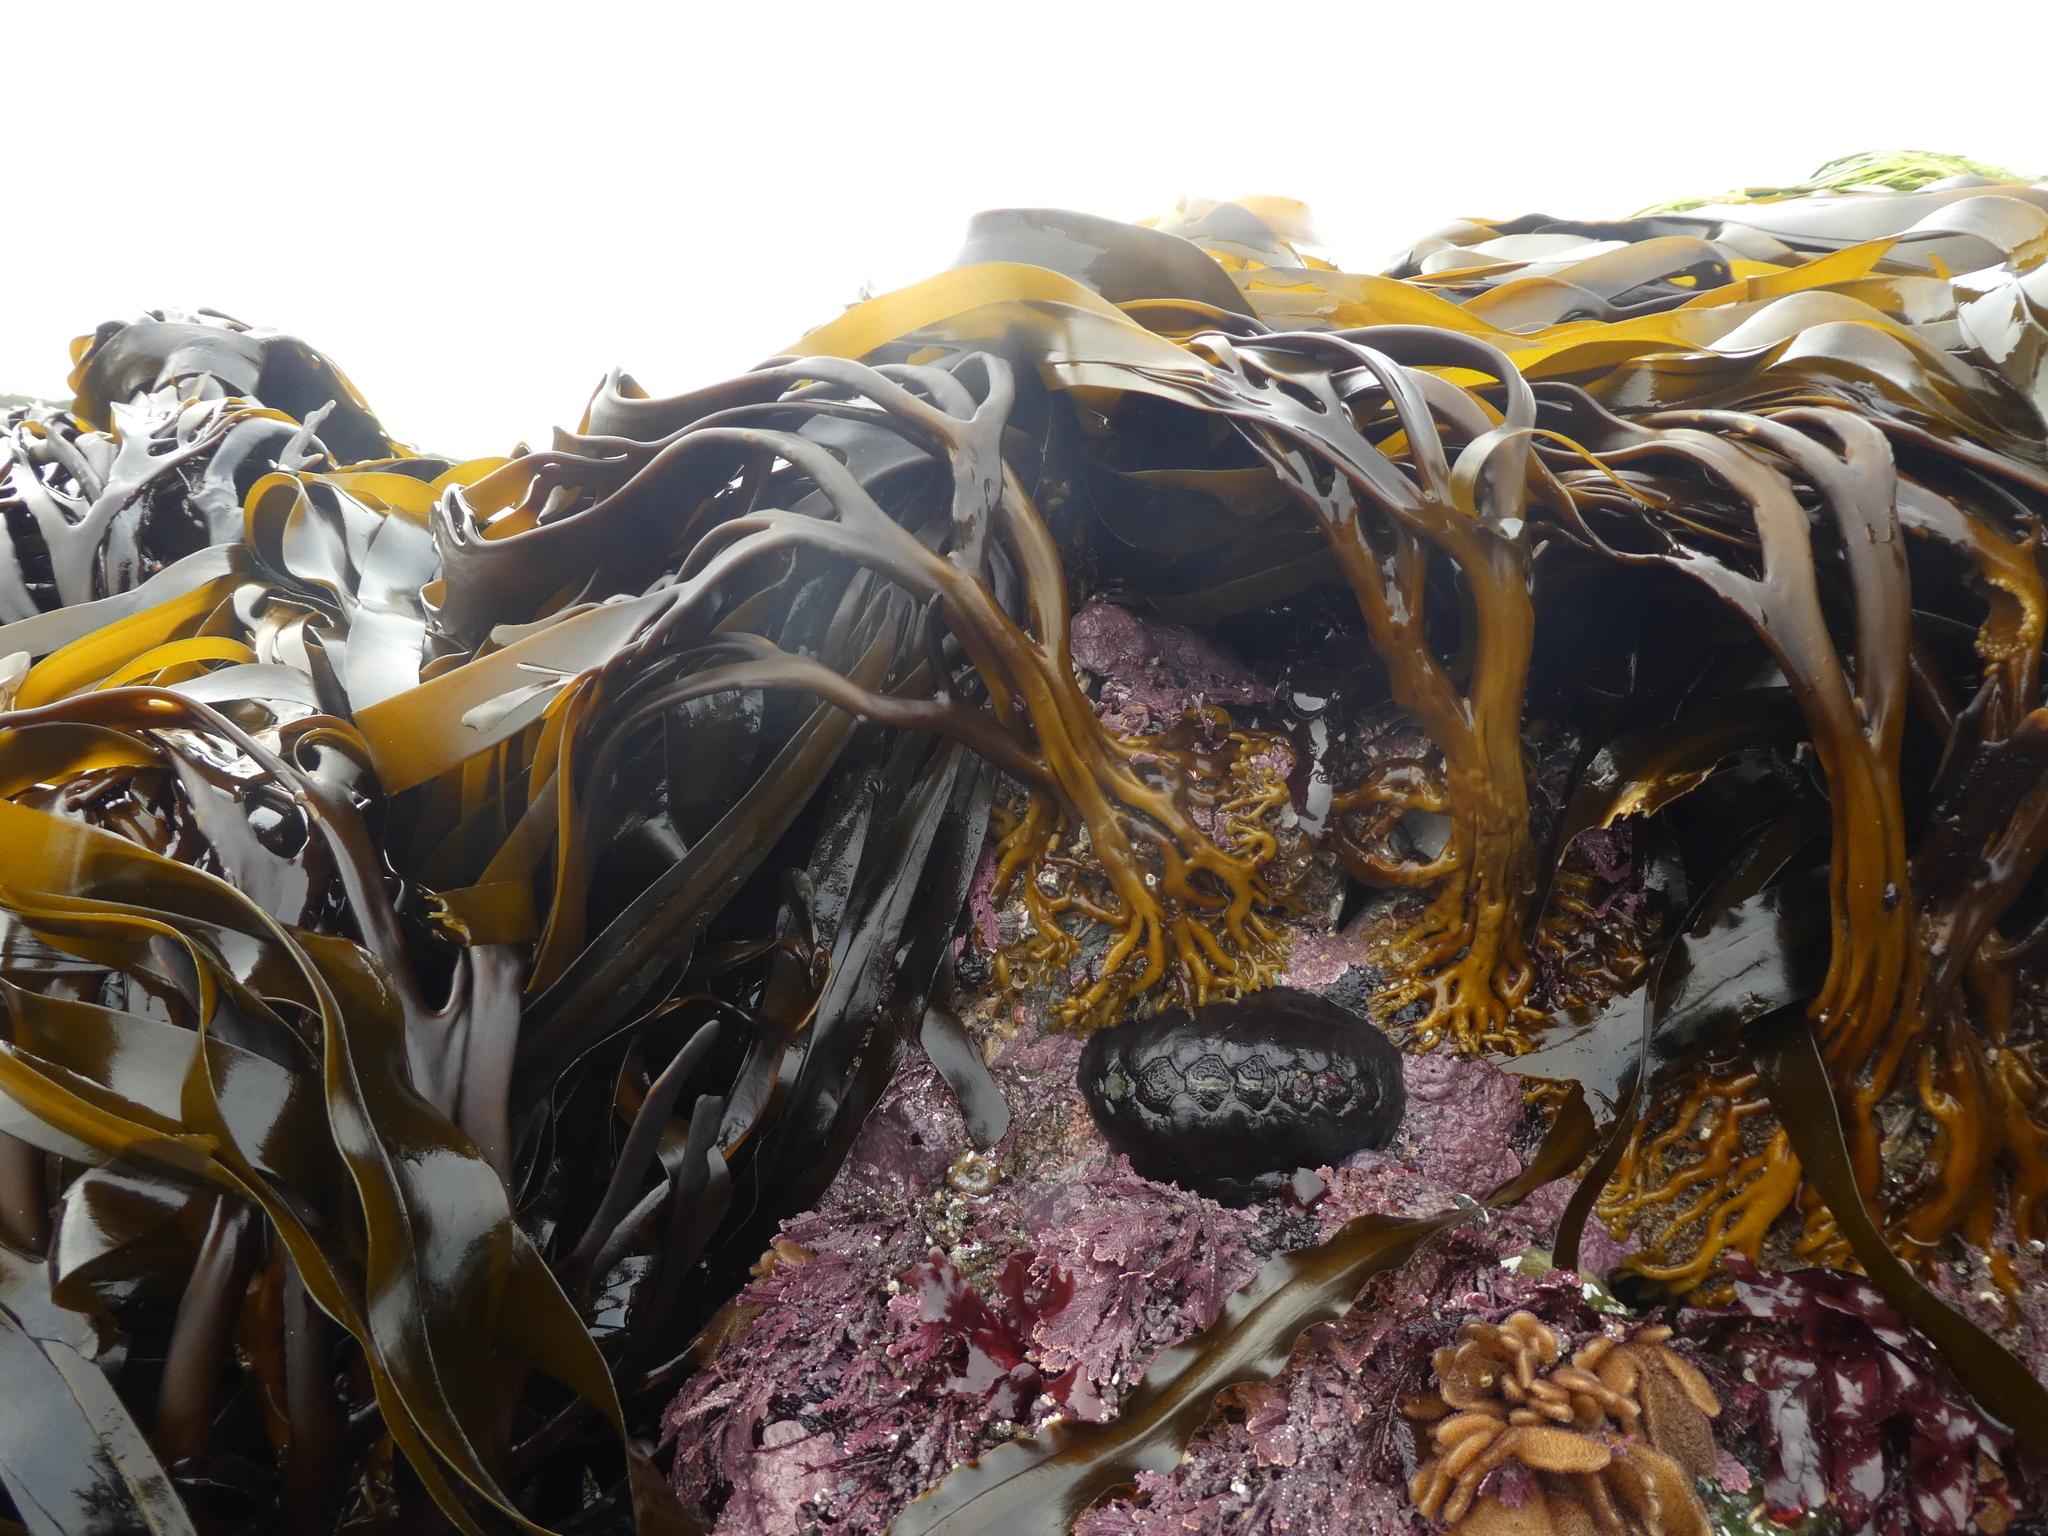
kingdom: Chromista
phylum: Ochrophyta
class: Phaeophyceae
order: Laminariales
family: Alariaceae
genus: Lessoniopsis
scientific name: Lessoniopsis littoralis
